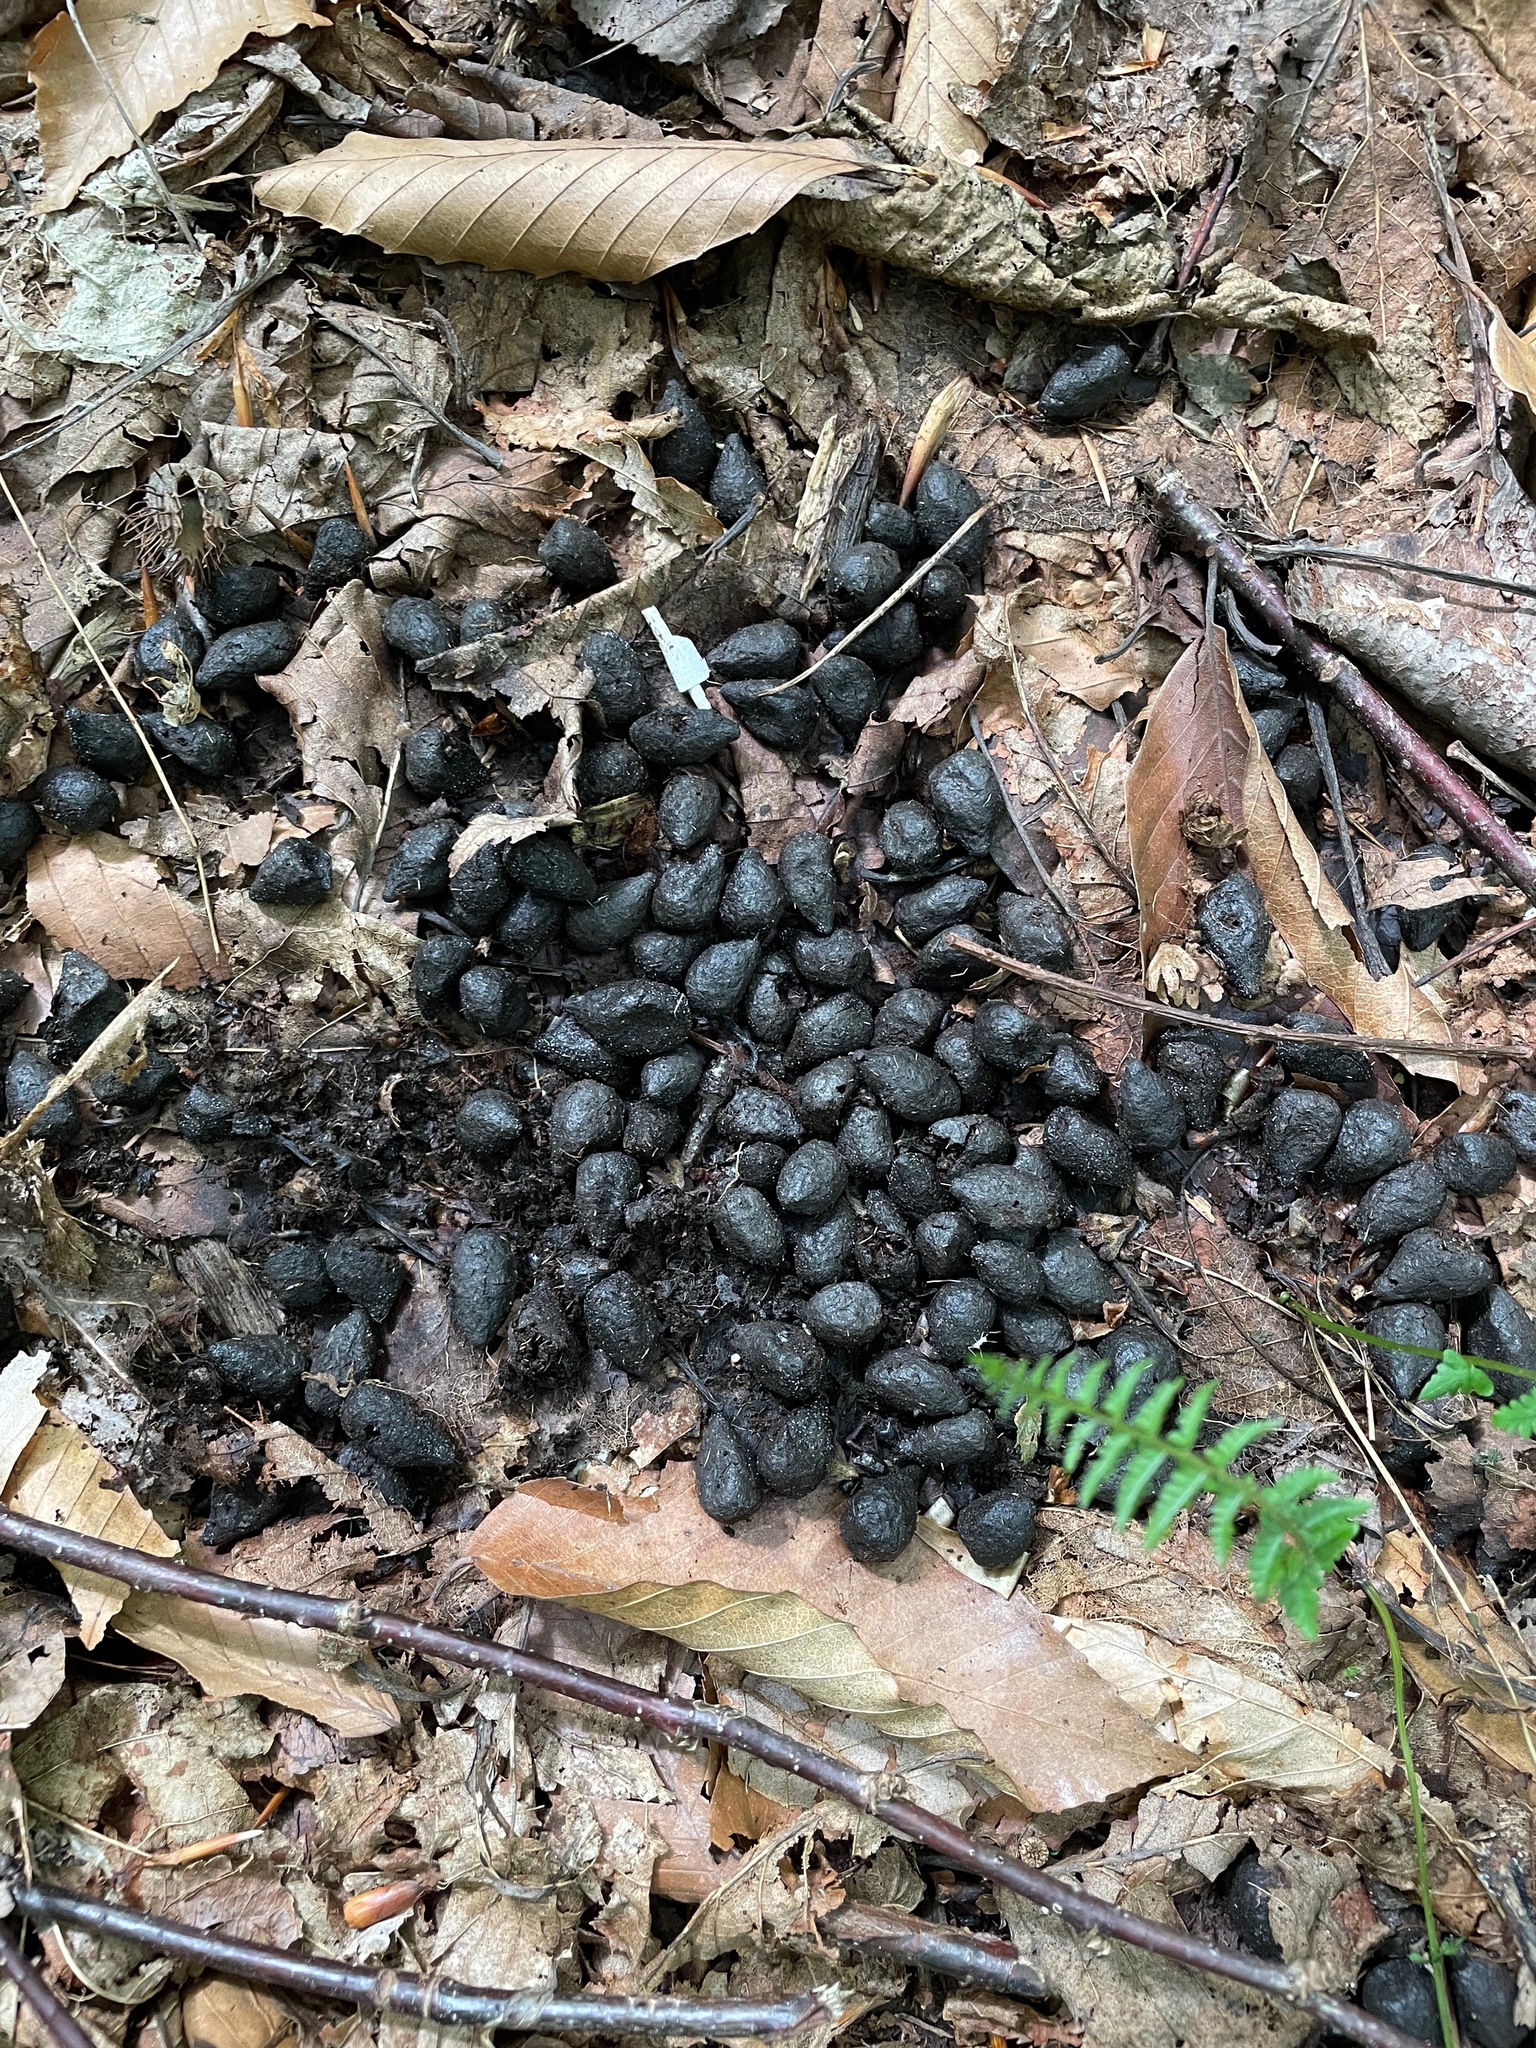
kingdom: Animalia
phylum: Chordata
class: Mammalia
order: Artiodactyla
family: Cervidae
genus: Odocoileus
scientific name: Odocoileus virginianus
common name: White-tailed deer
